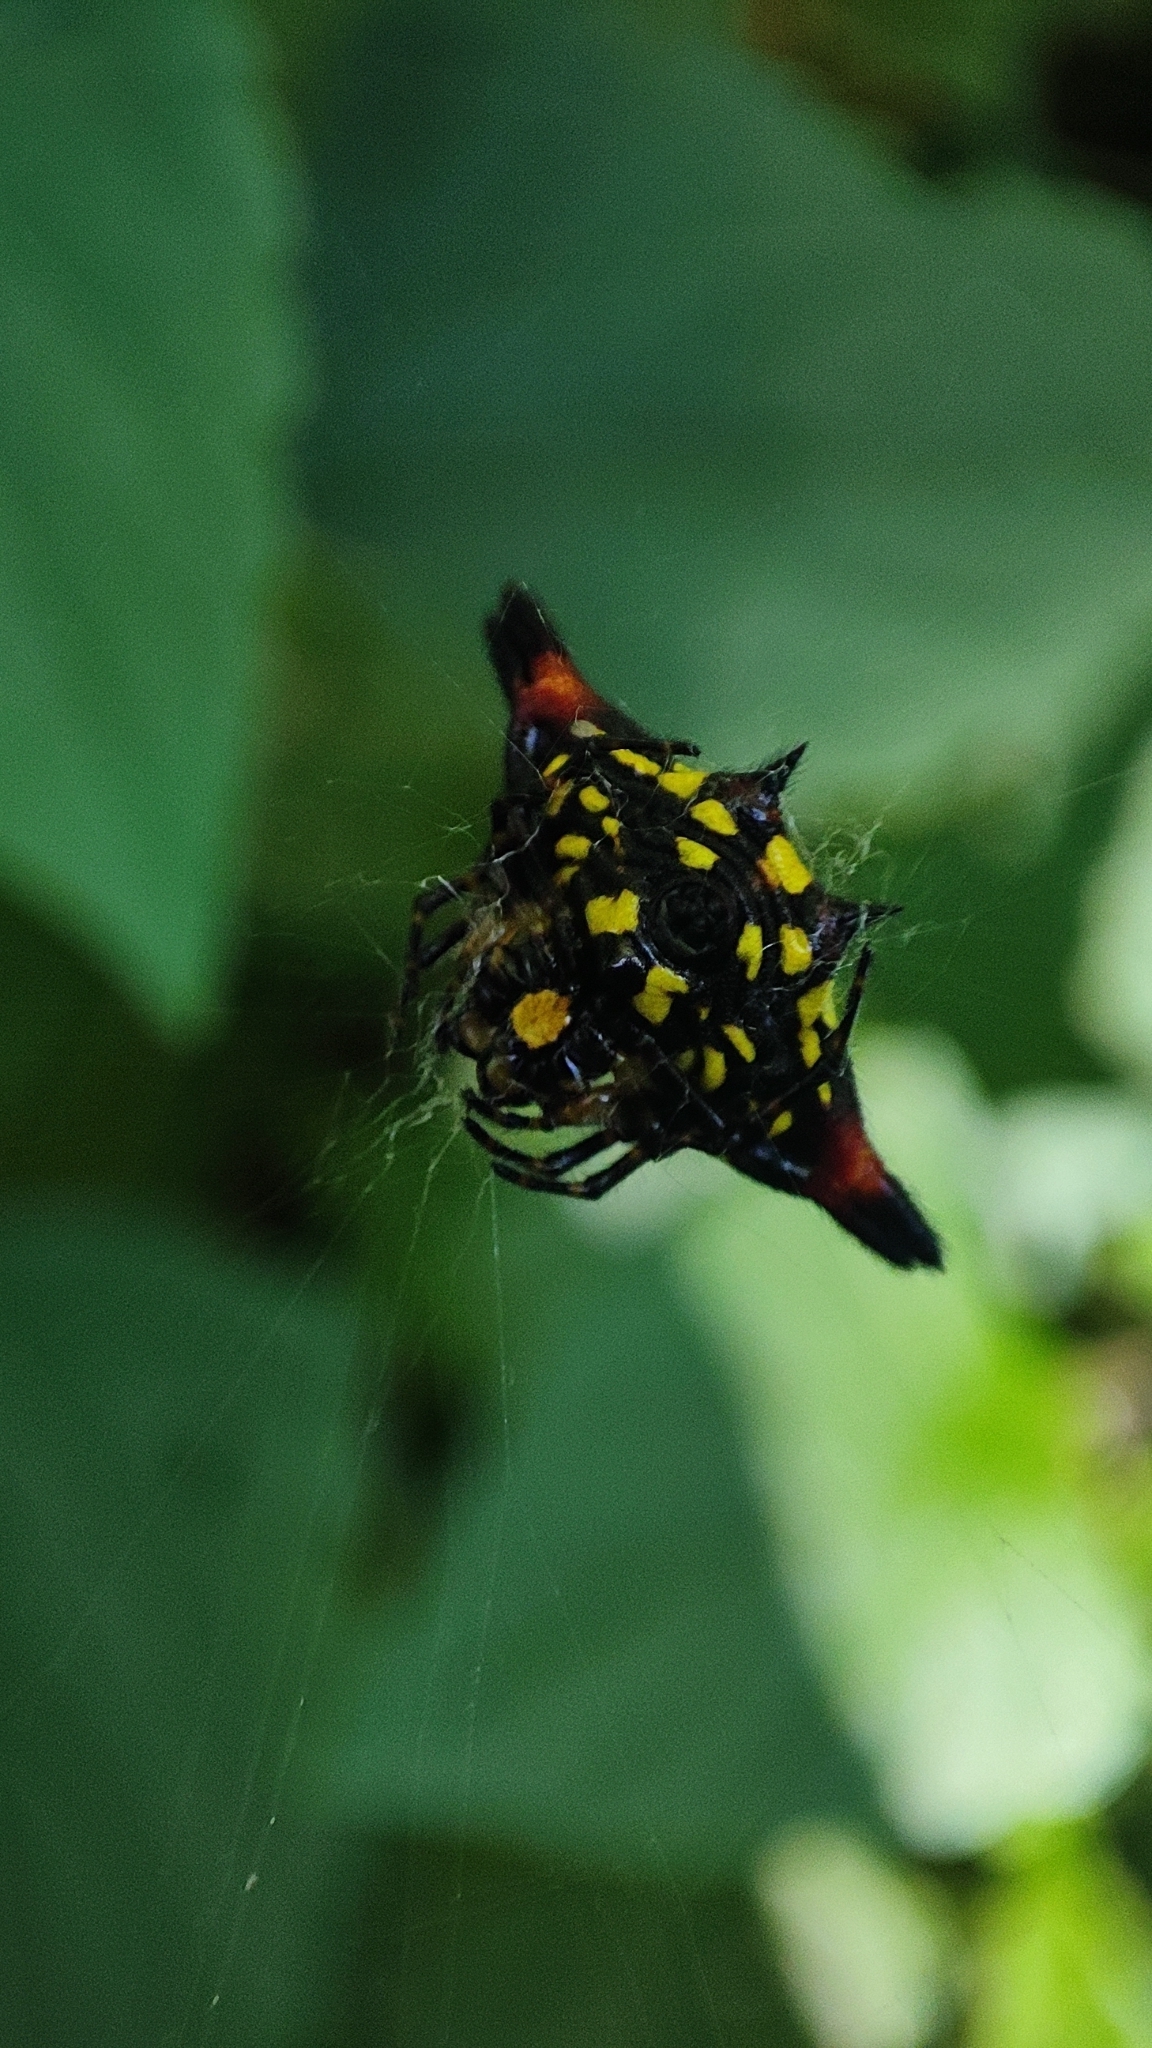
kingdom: Animalia
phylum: Arthropoda
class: Arachnida
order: Araneae
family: Araneidae
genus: Gasteracantha
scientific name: Gasteracantha geminata
